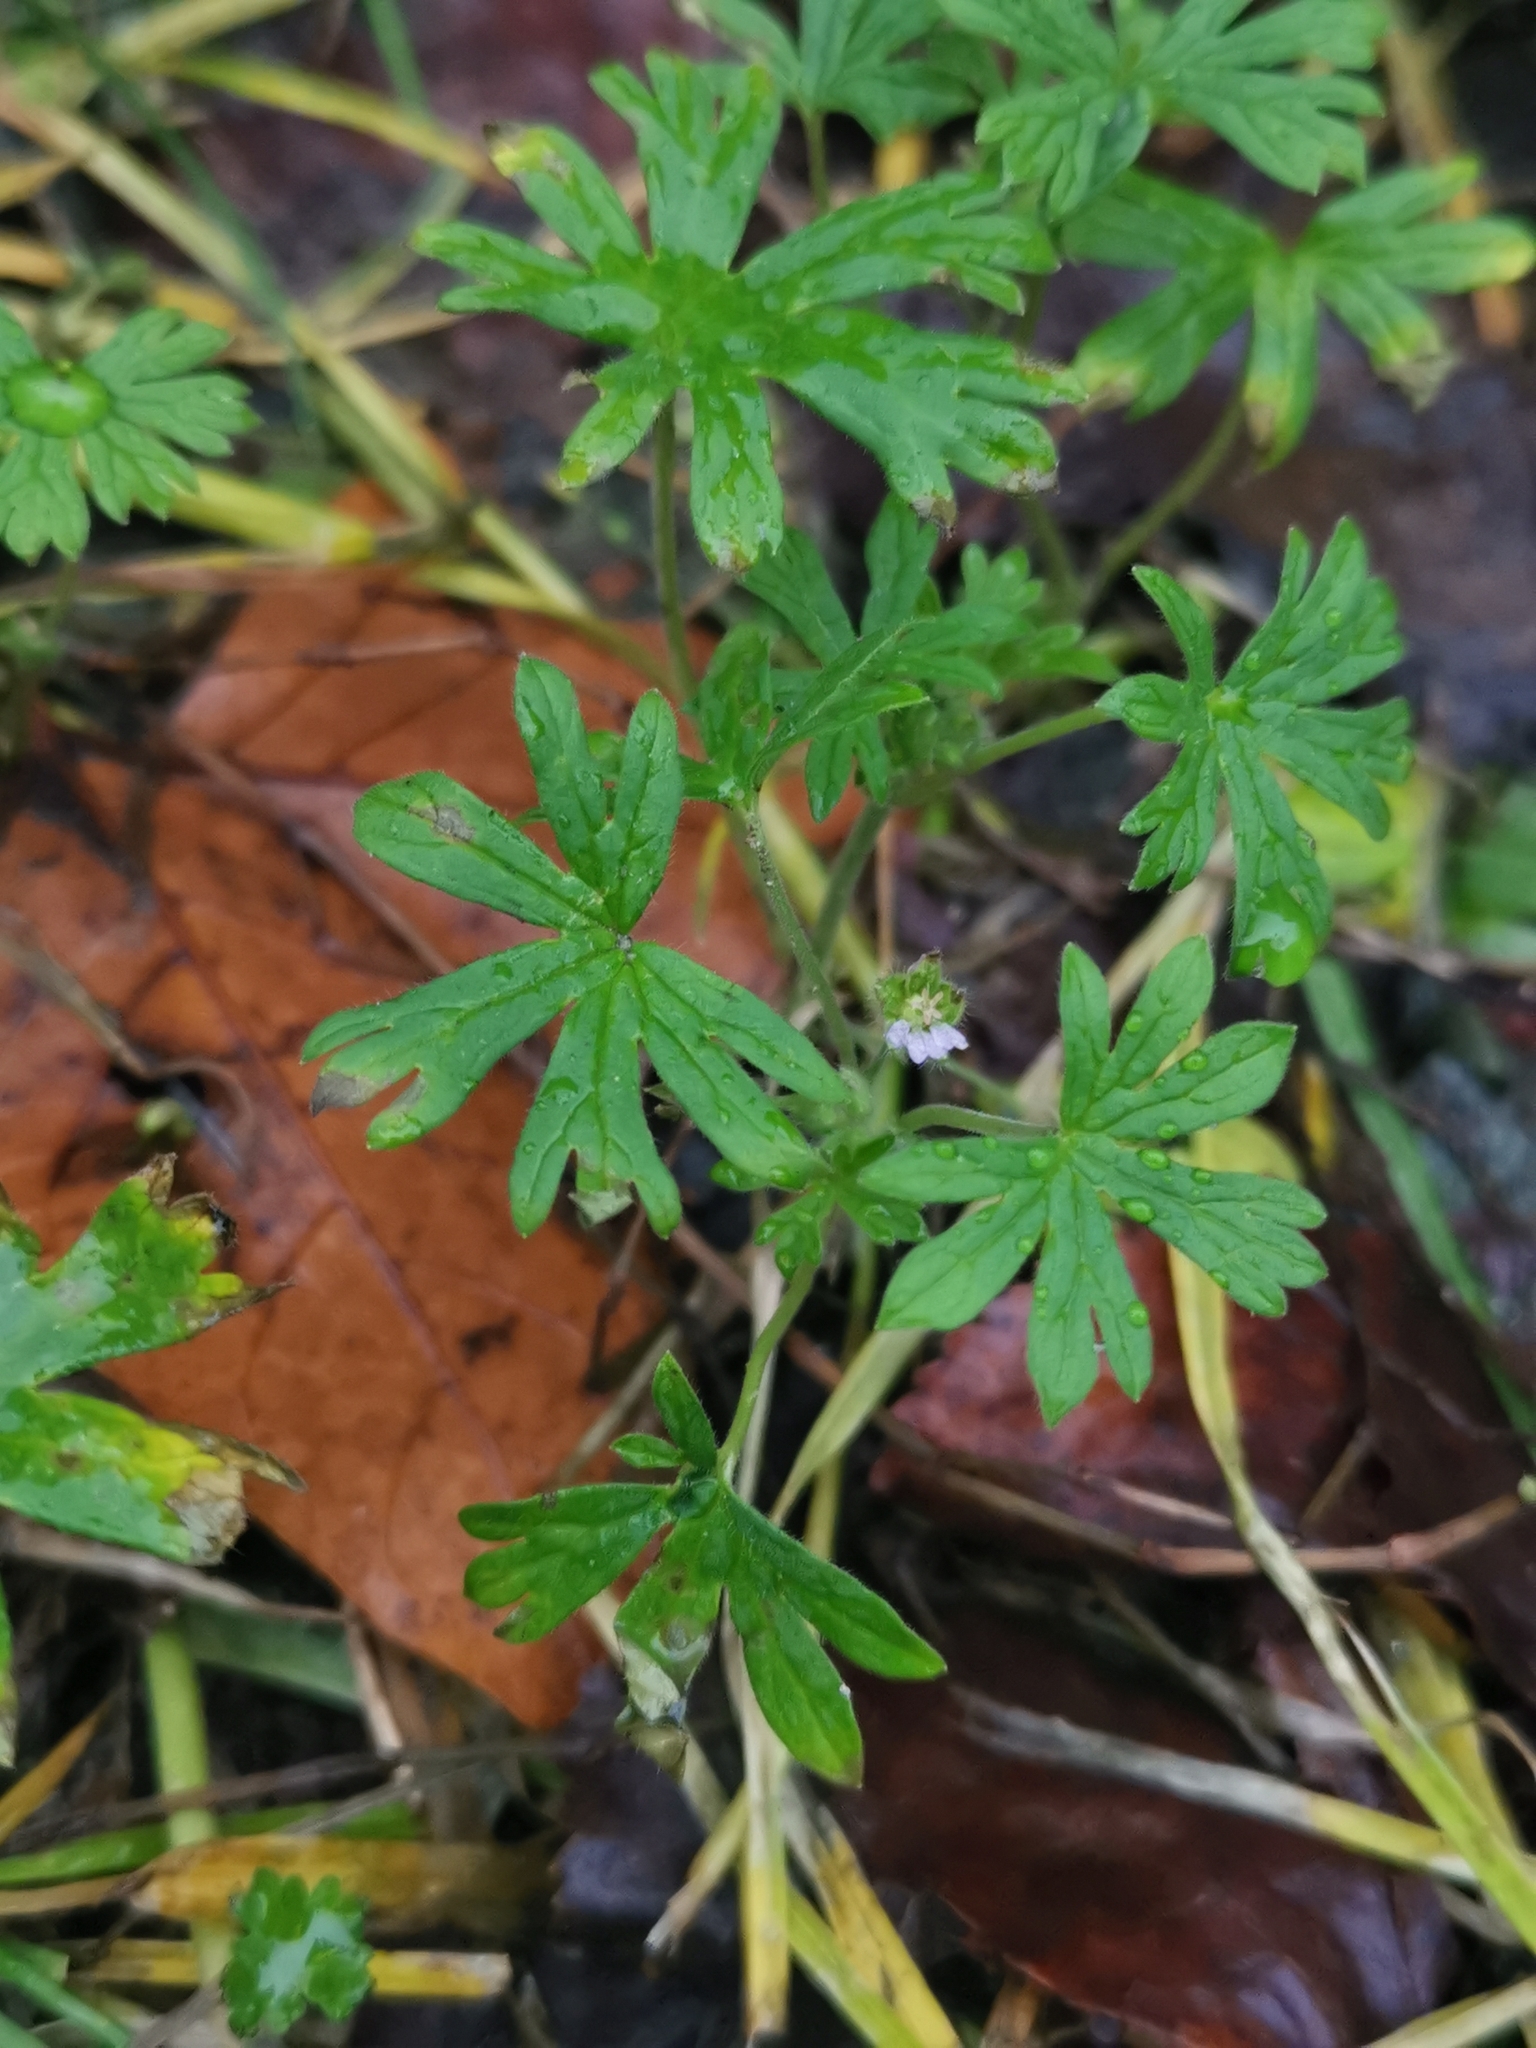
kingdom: Plantae
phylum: Tracheophyta
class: Magnoliopsida
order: Geraniales
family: Geraniaceae
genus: Geranium
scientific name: Geranium pusillum
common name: Small geranium
